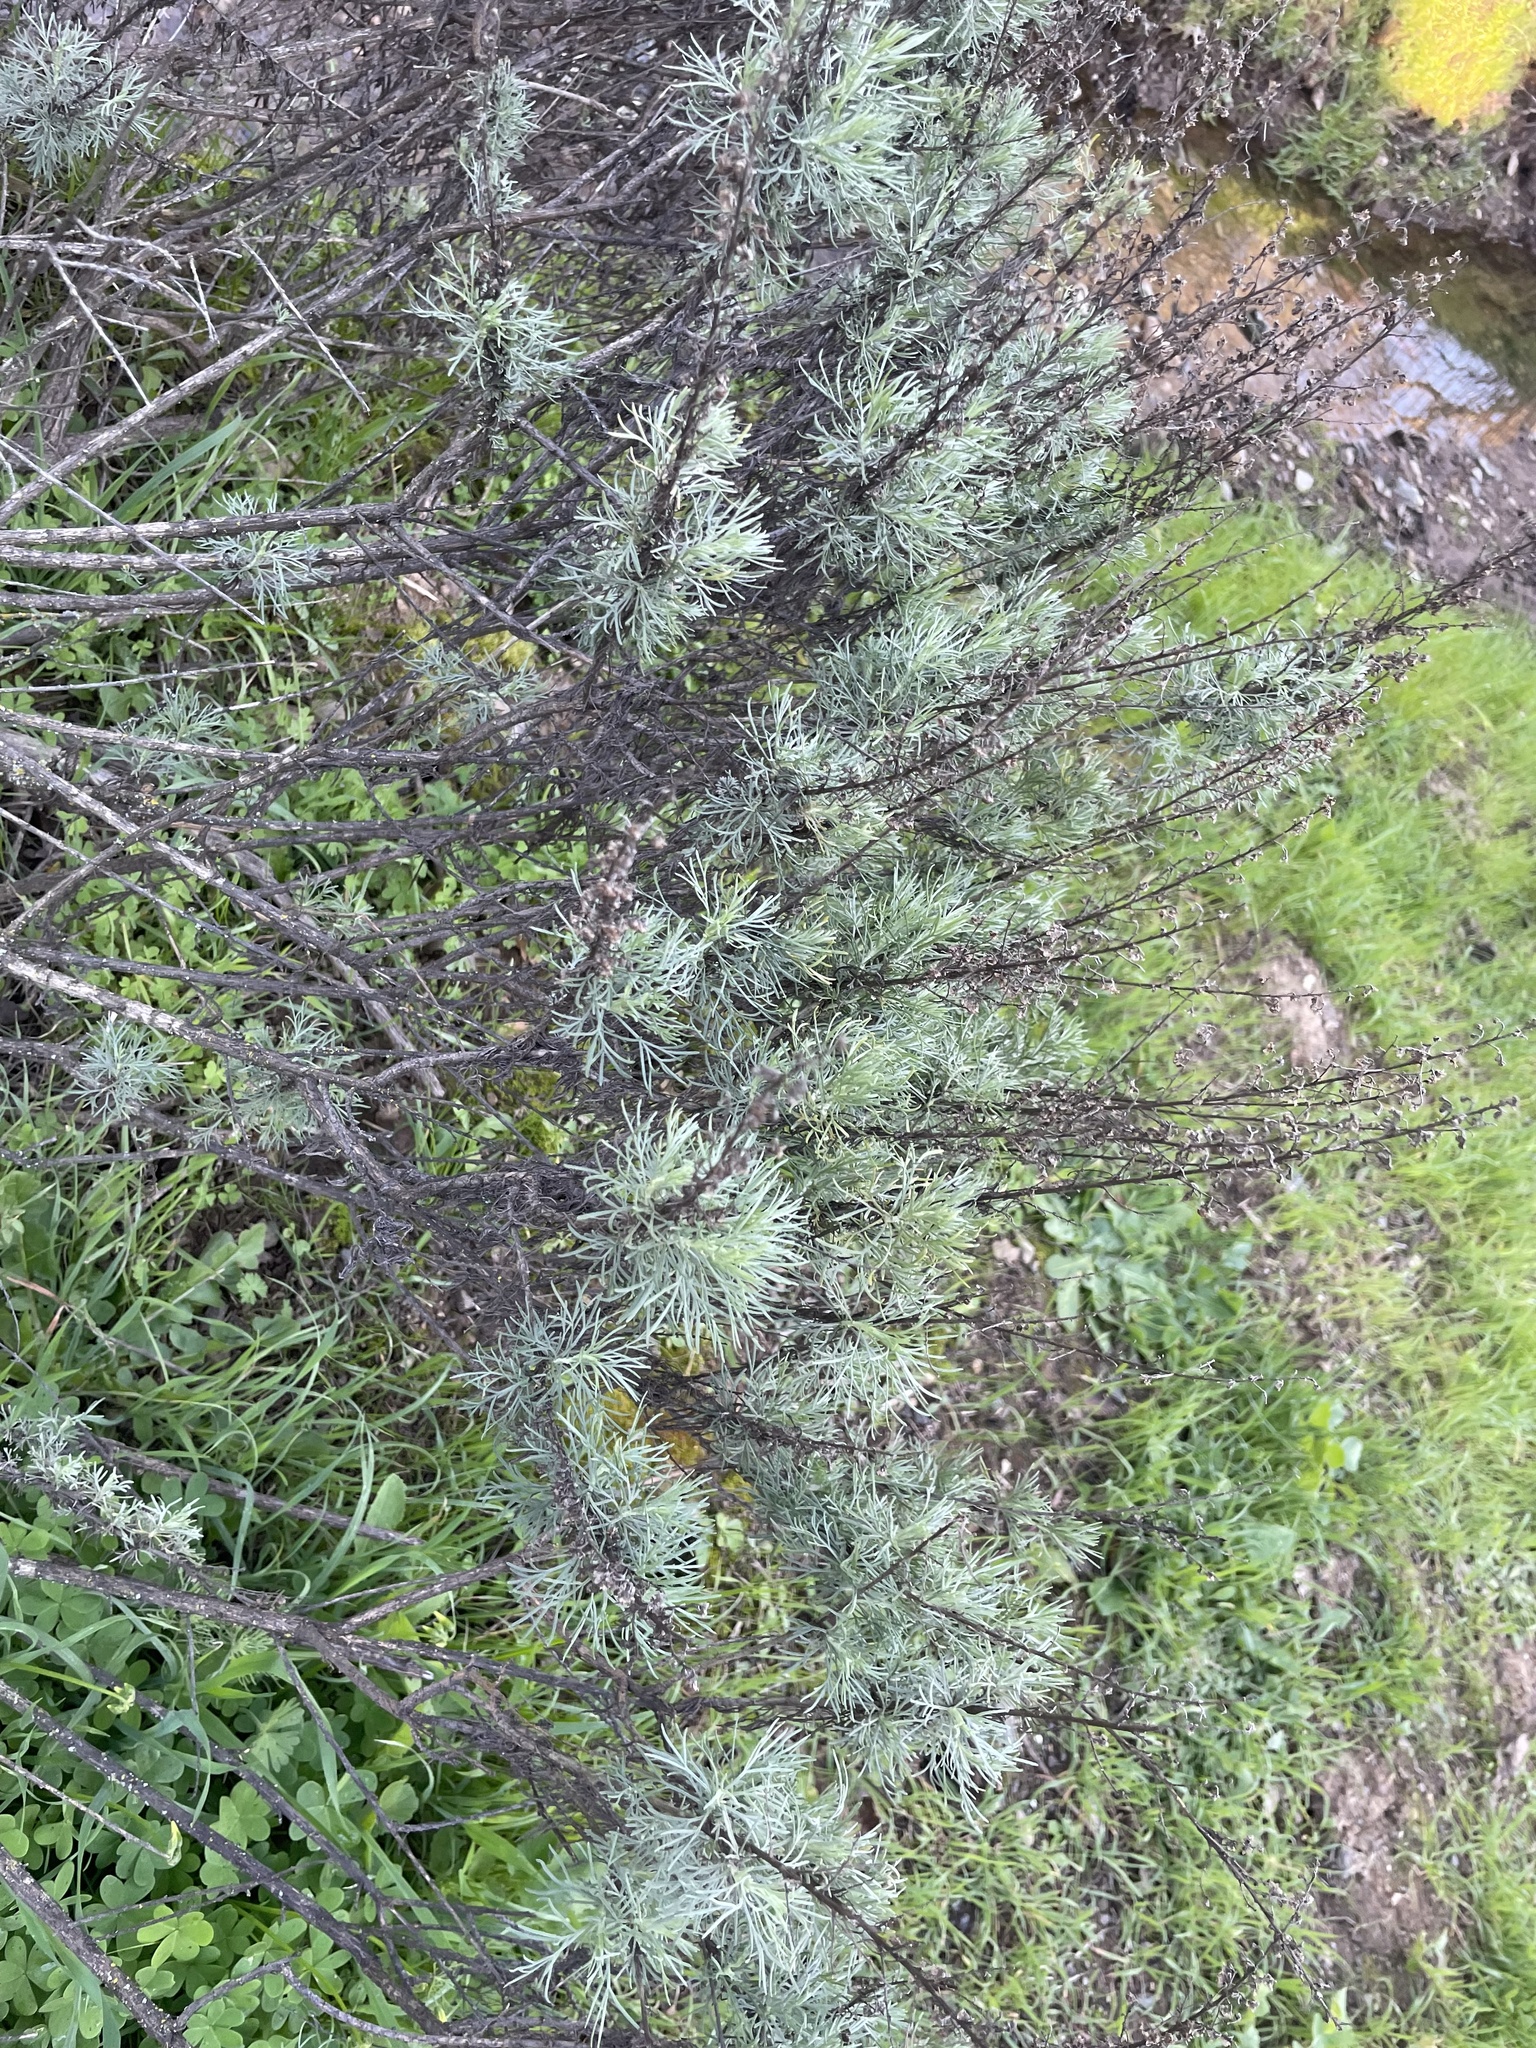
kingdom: Plantae
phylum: Tracheophyta
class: Magnoliopsida
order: Asterales
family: Asteraceae
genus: Artemisia
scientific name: Artemisia californica
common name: California sagebrush
